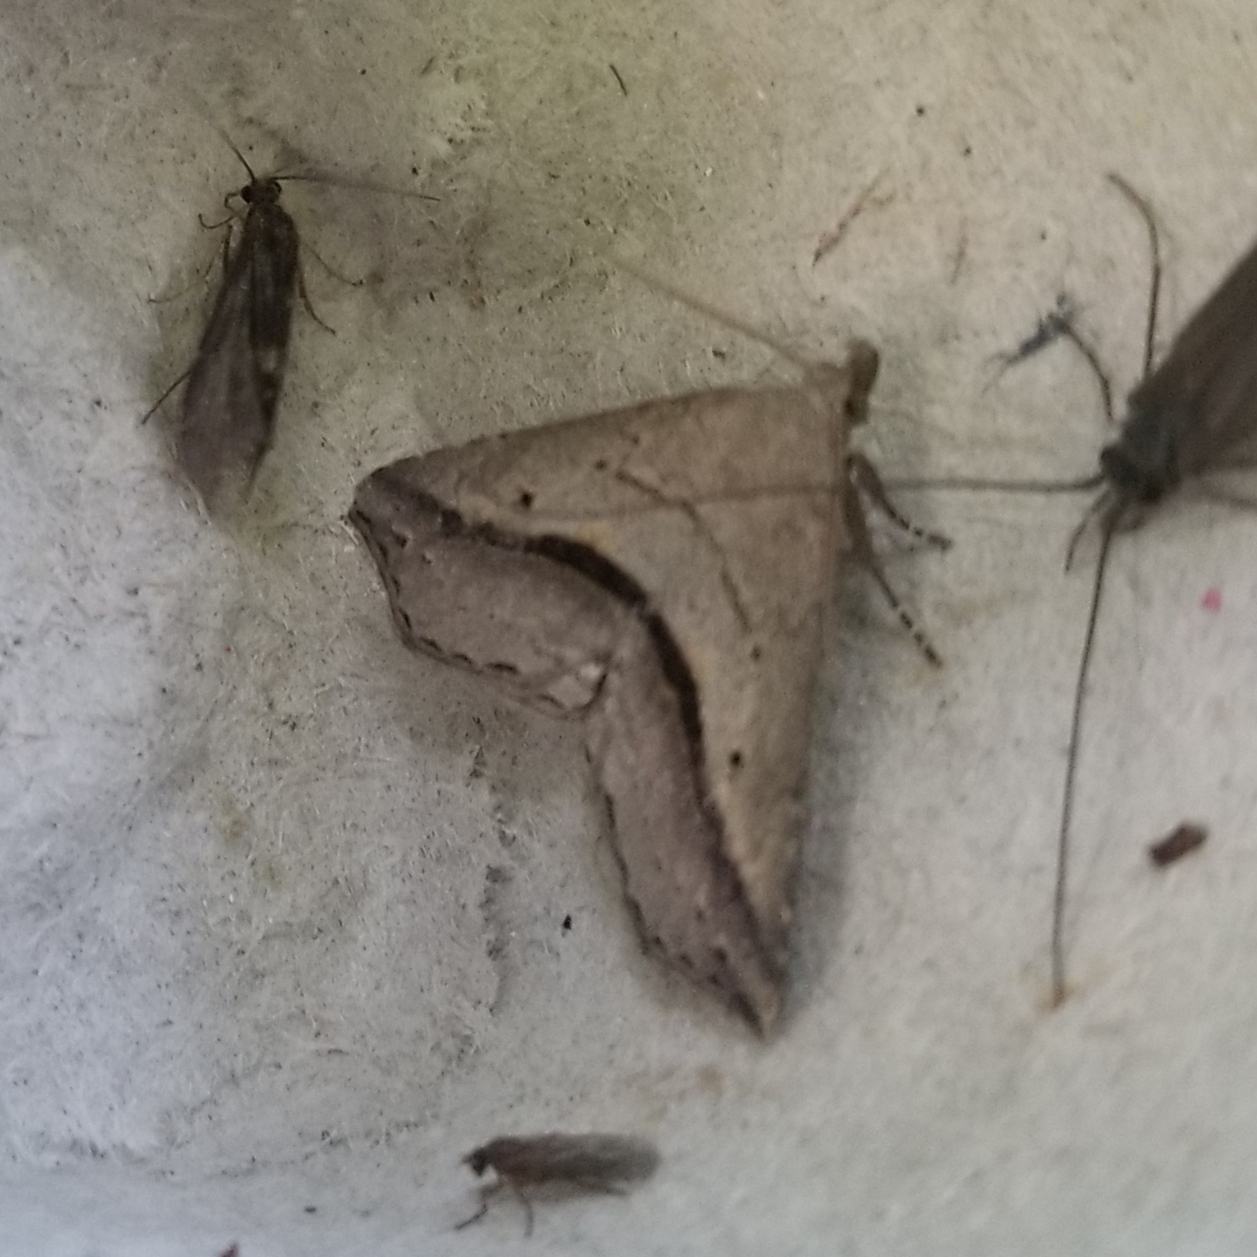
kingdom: Animalia
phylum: Arthropoda
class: Insecta
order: Lepidoptera
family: Erebidae
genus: Spargaloma
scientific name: Spargaloma perditalis
